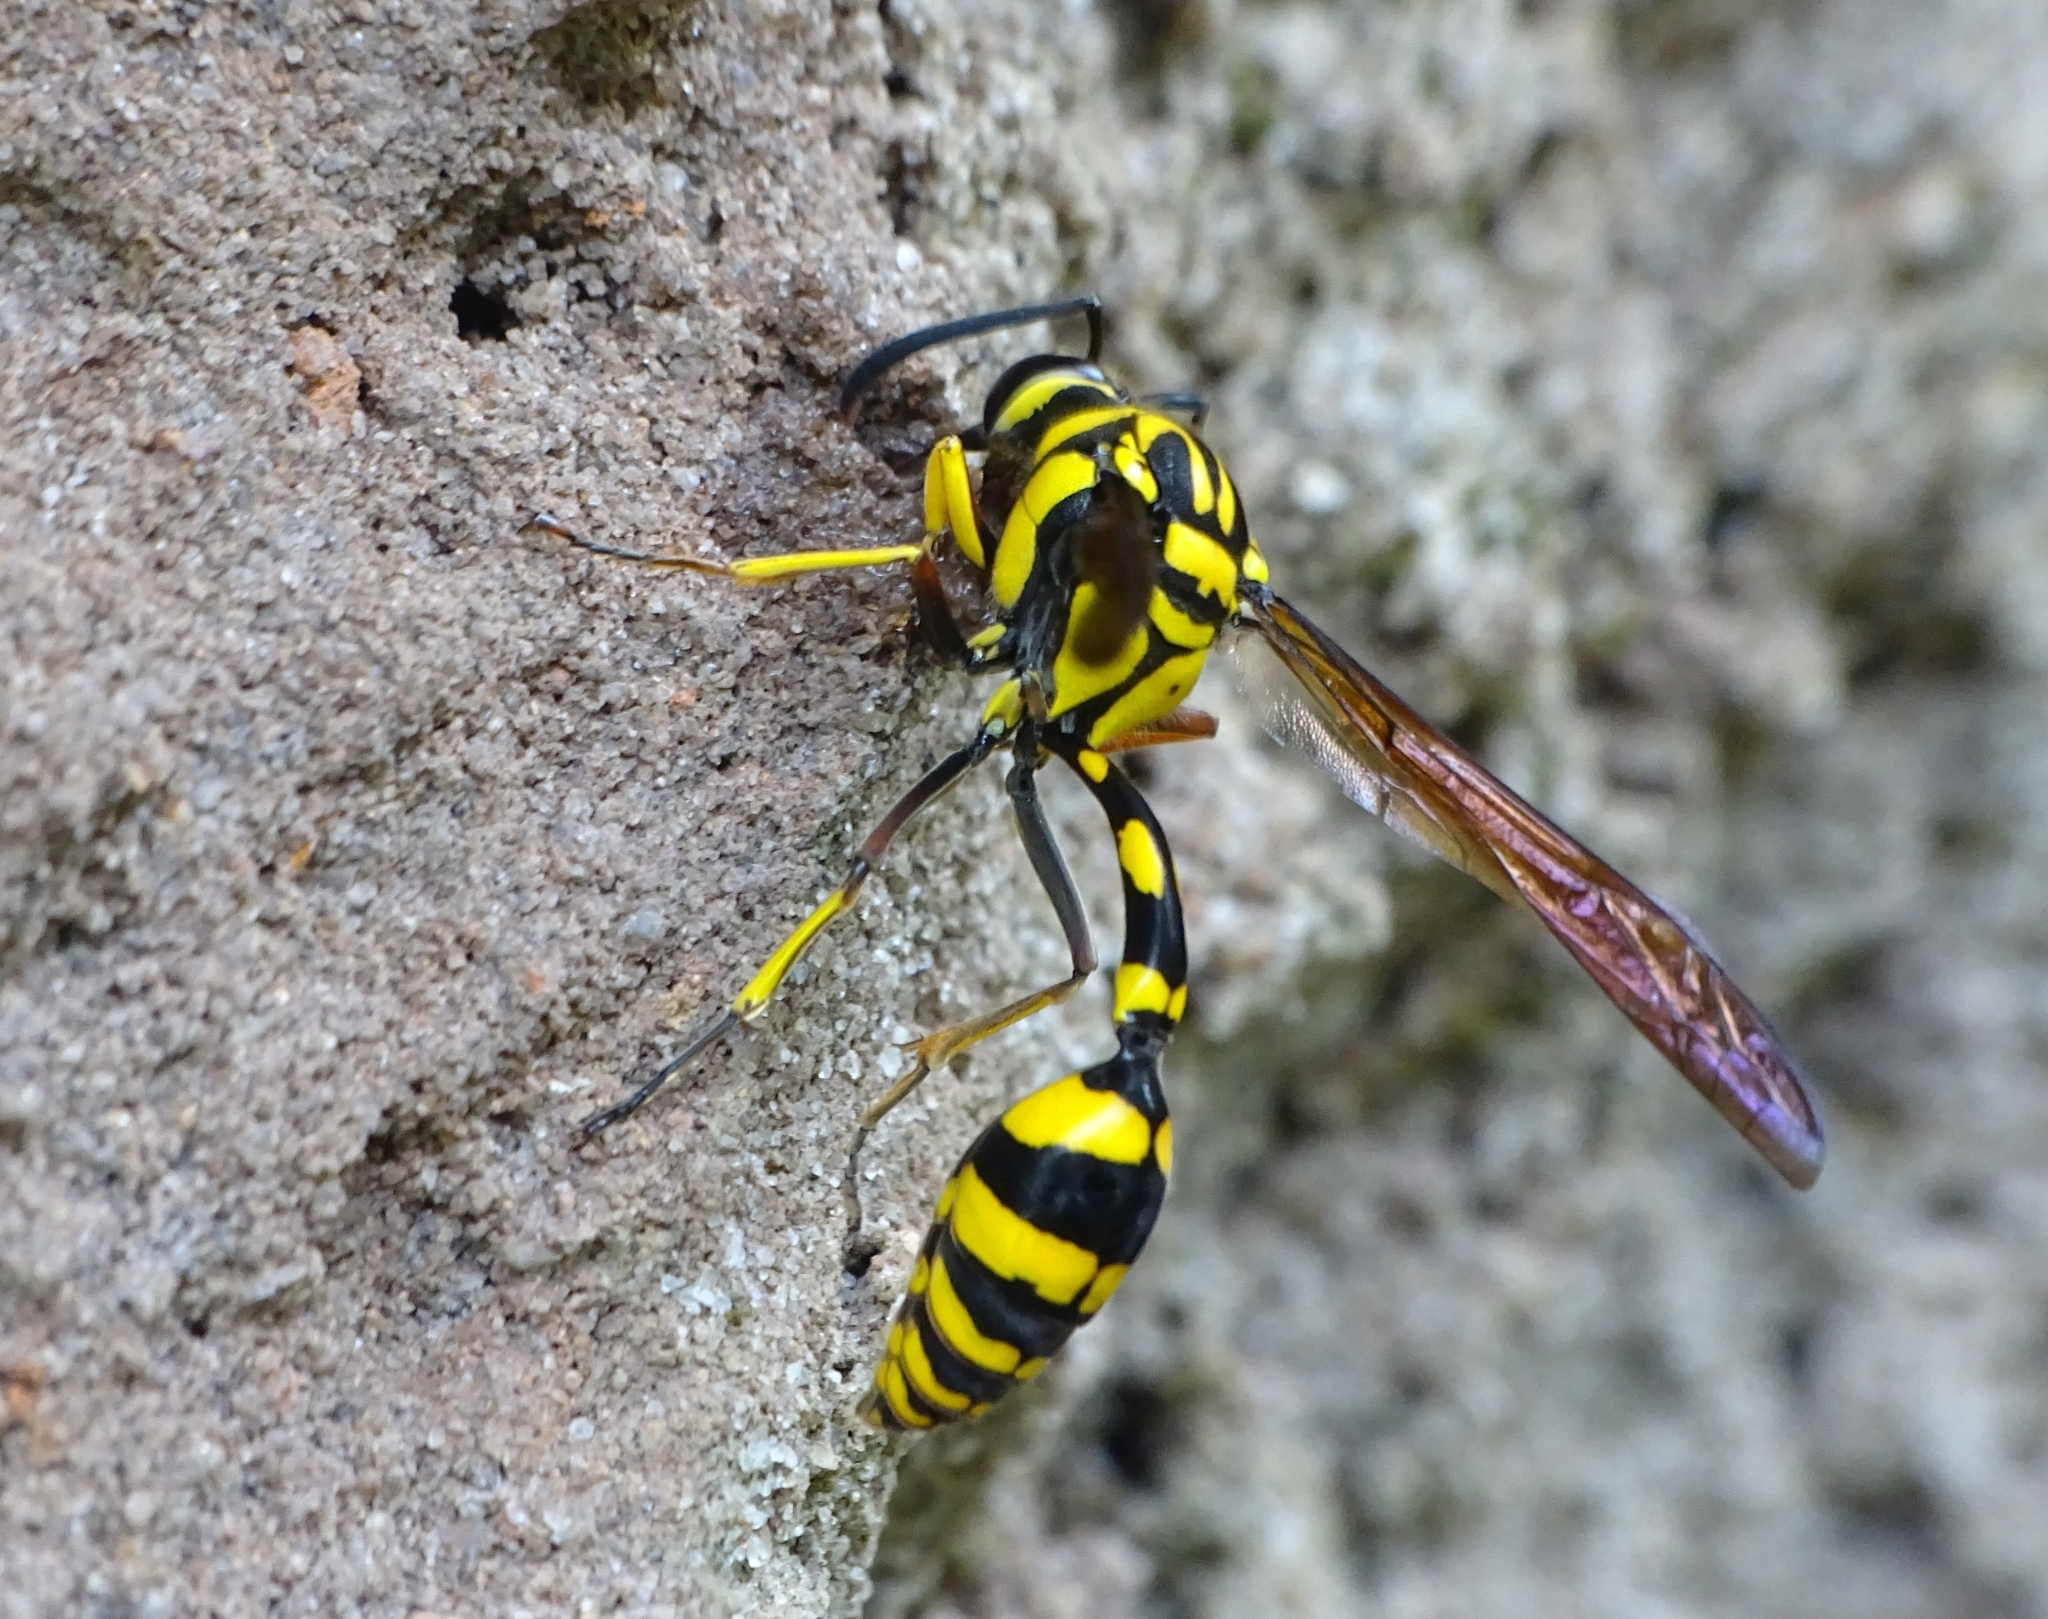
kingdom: Animalia
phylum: Arthropoda
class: Insecta
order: Hymenoptera
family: Eumenidae
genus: Phimenes
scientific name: Phimenes flavopictus
